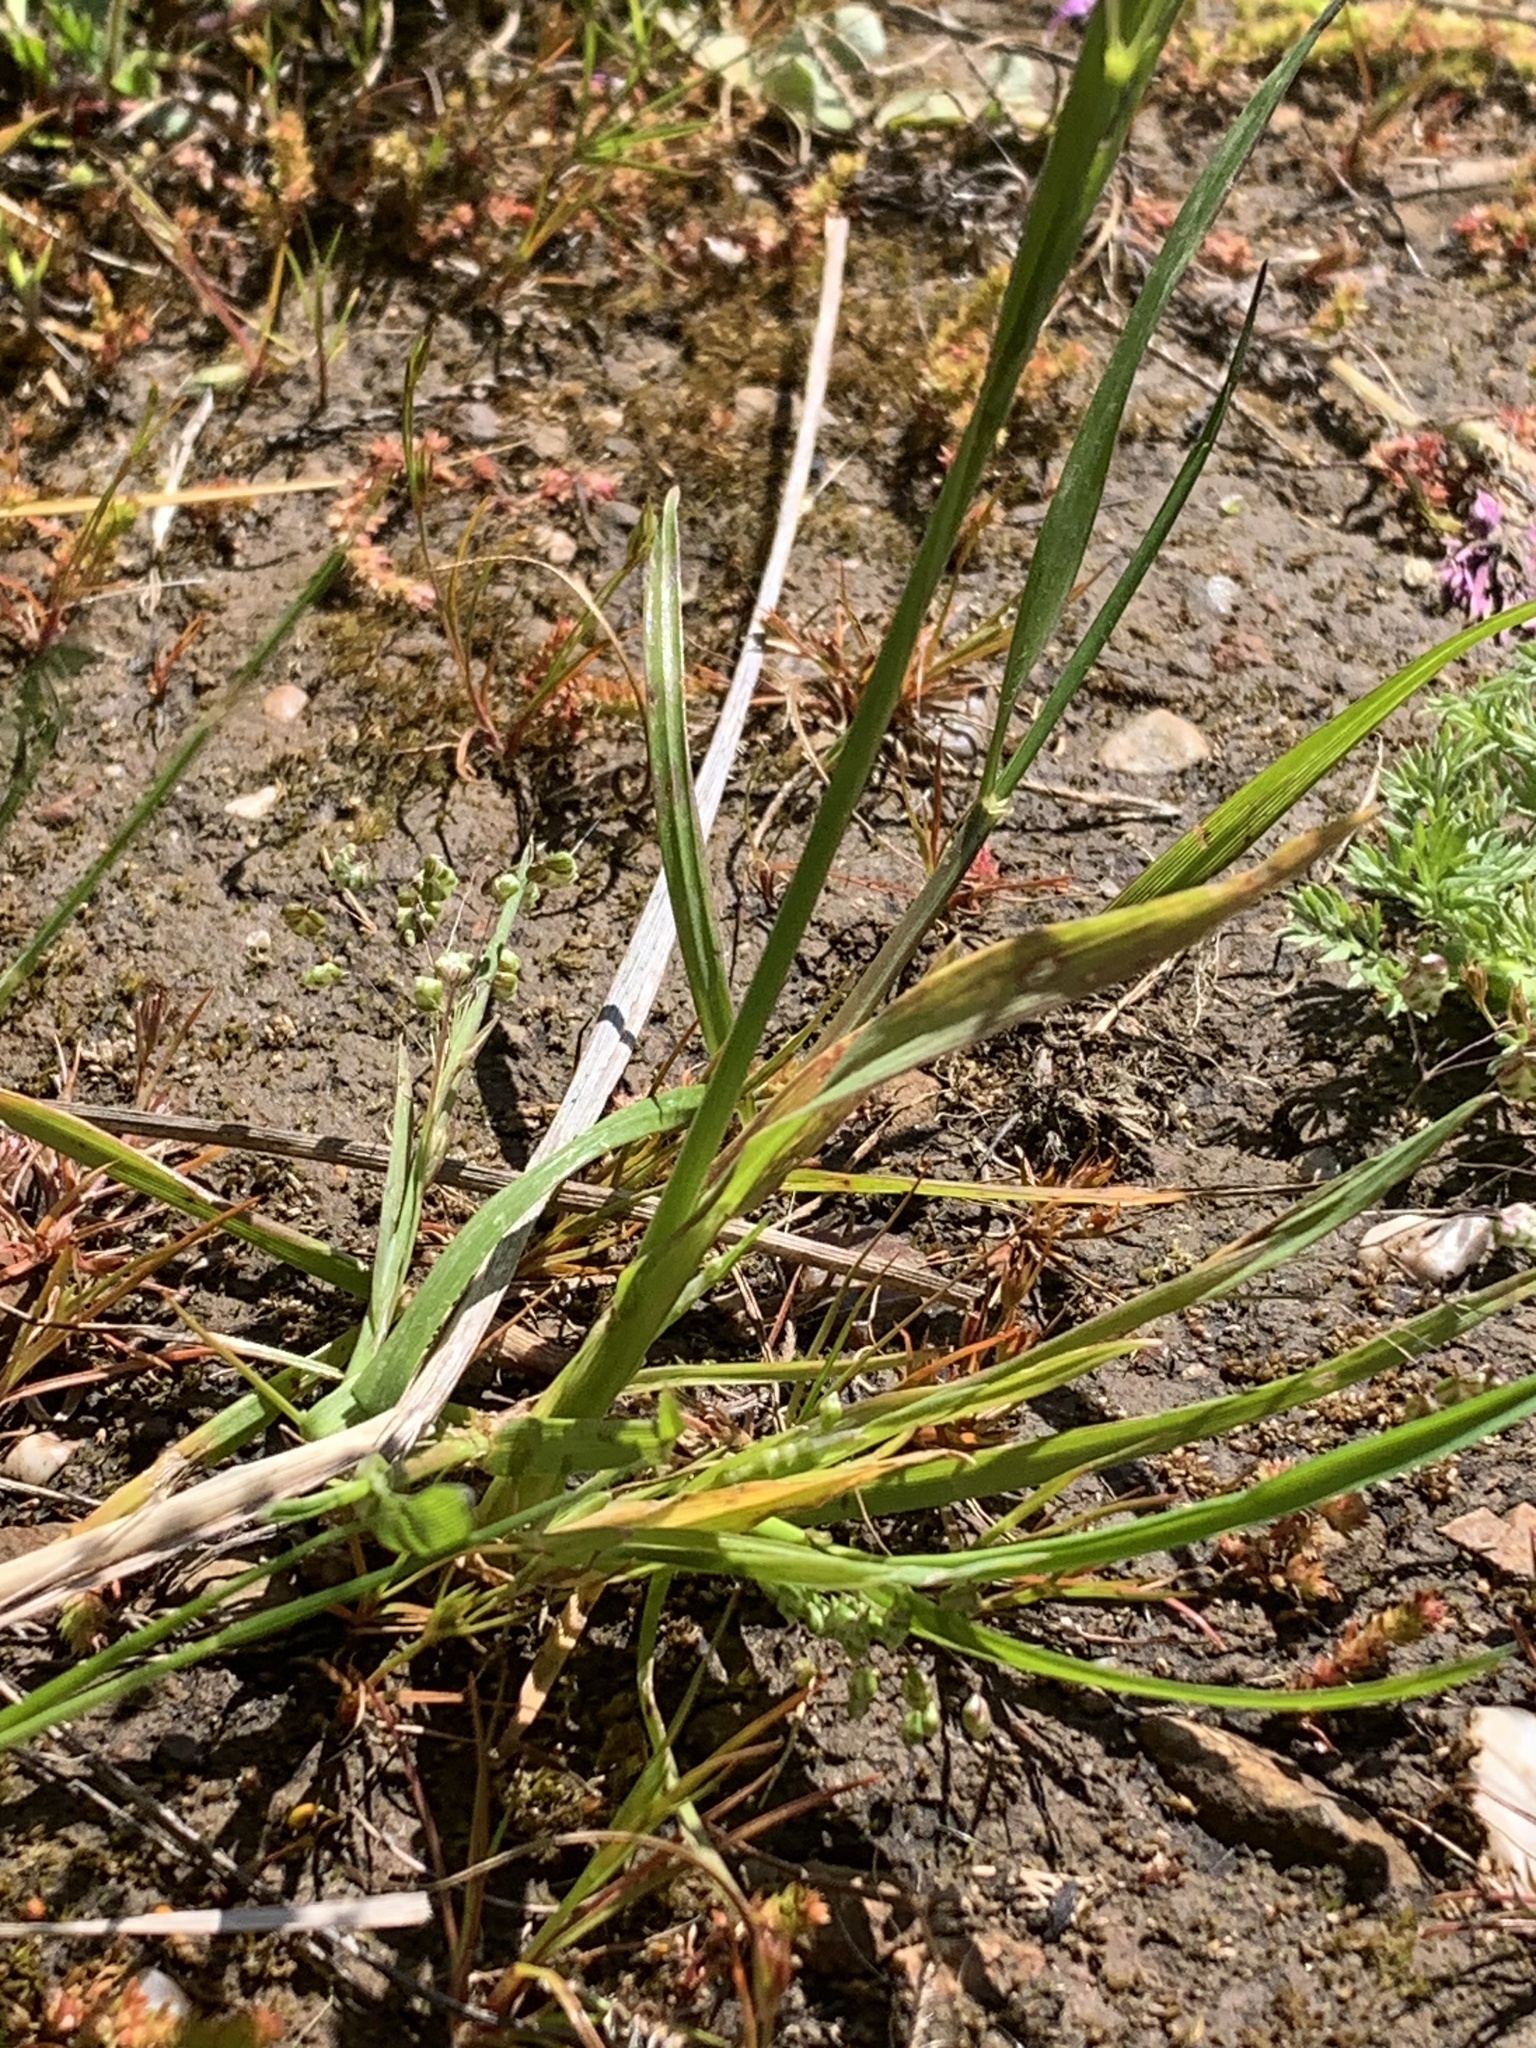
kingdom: Plantae
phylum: Tracheophyta
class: Liliopsida
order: Poales
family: Poaceae
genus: Briza
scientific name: Briza minor
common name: Lesser quaking-grass
